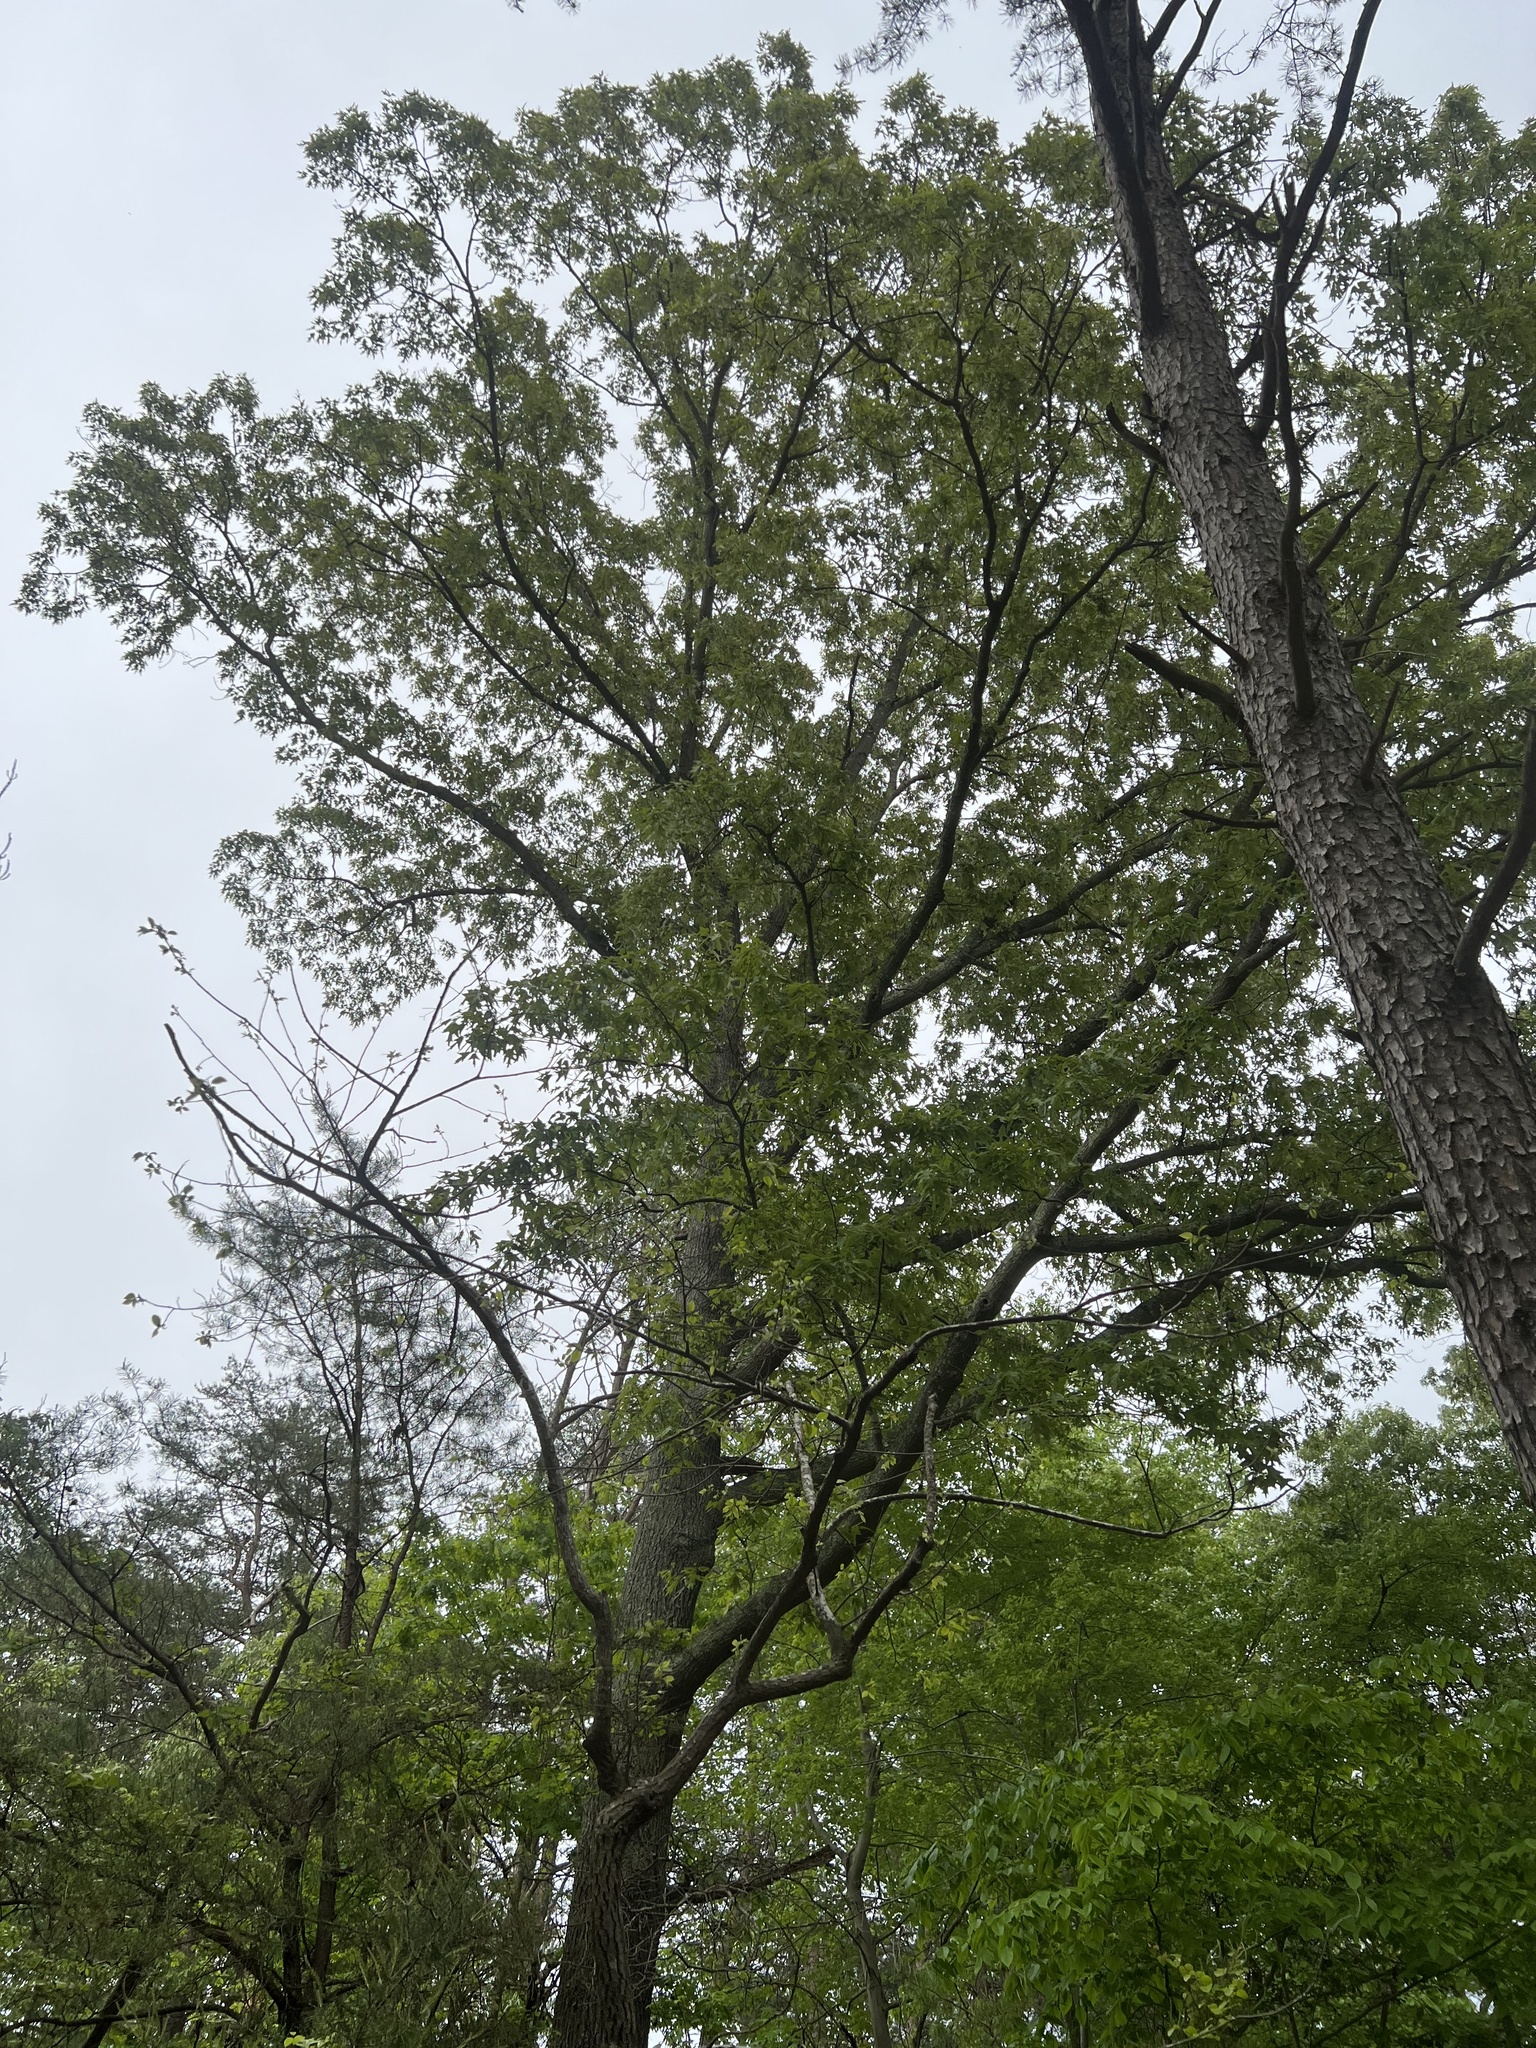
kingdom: Plantae
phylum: Tracheophyta
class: Magnoliopsida
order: Fagales
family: Fagaceae
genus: Quercus
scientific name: Quercus falcata
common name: Southern red oak
